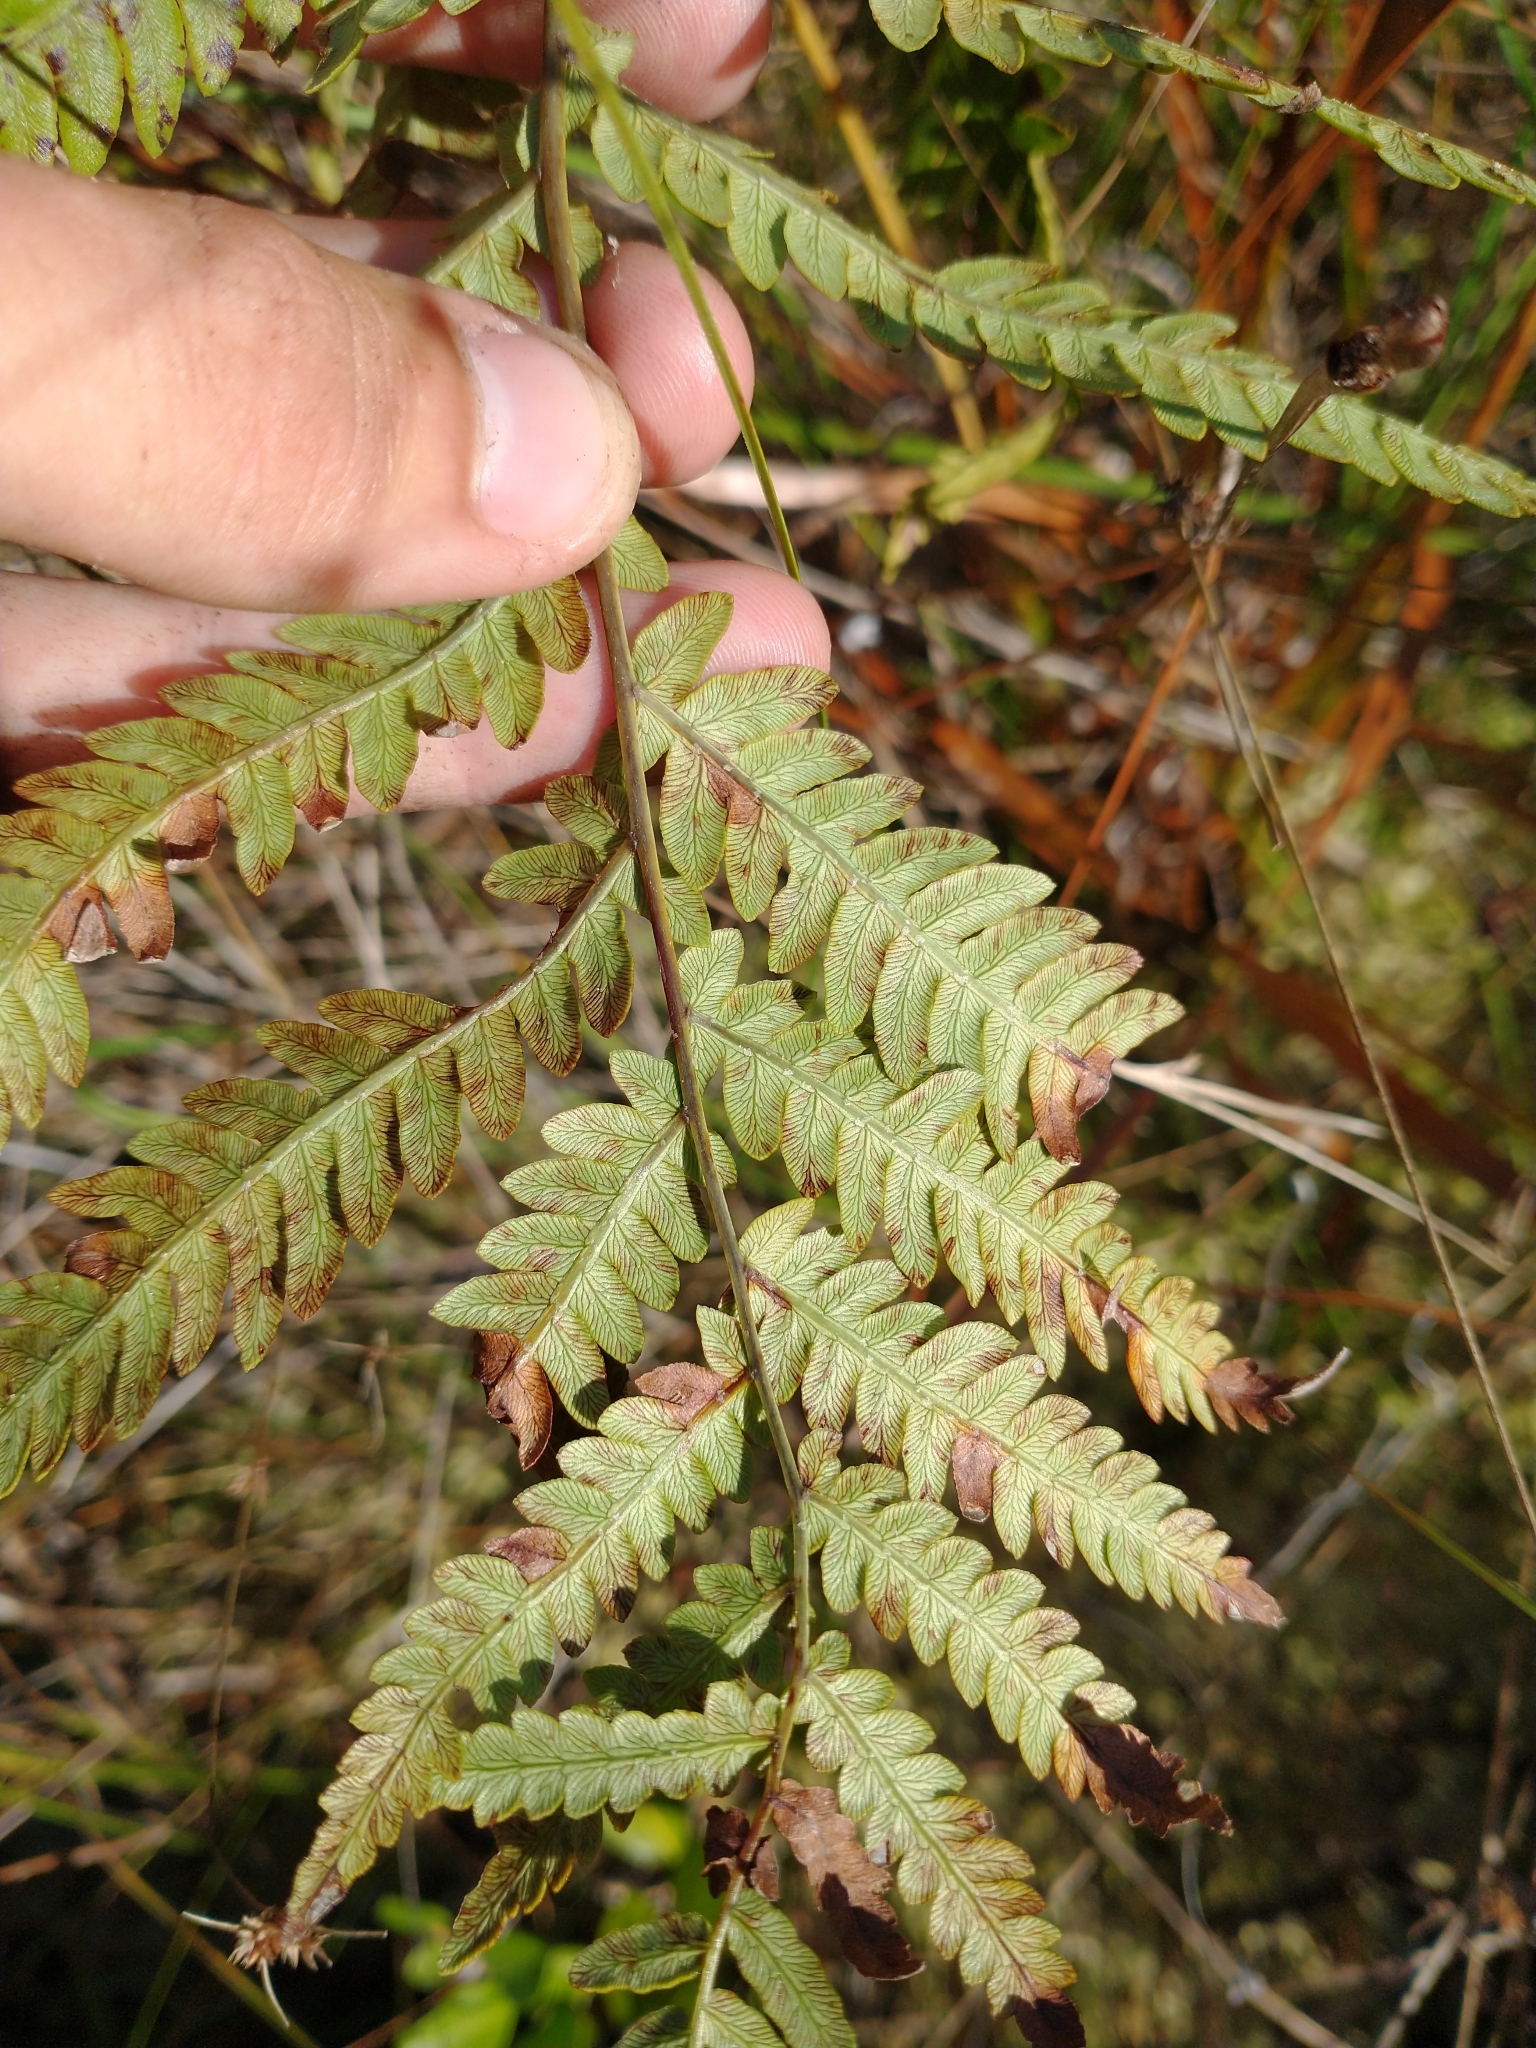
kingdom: Plantae
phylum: Tracheophyta
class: Polypodiopsida
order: Polypodiales
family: Blechnaceae
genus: Anchistea
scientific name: Anchistea virginica
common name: Virginia chain fern
